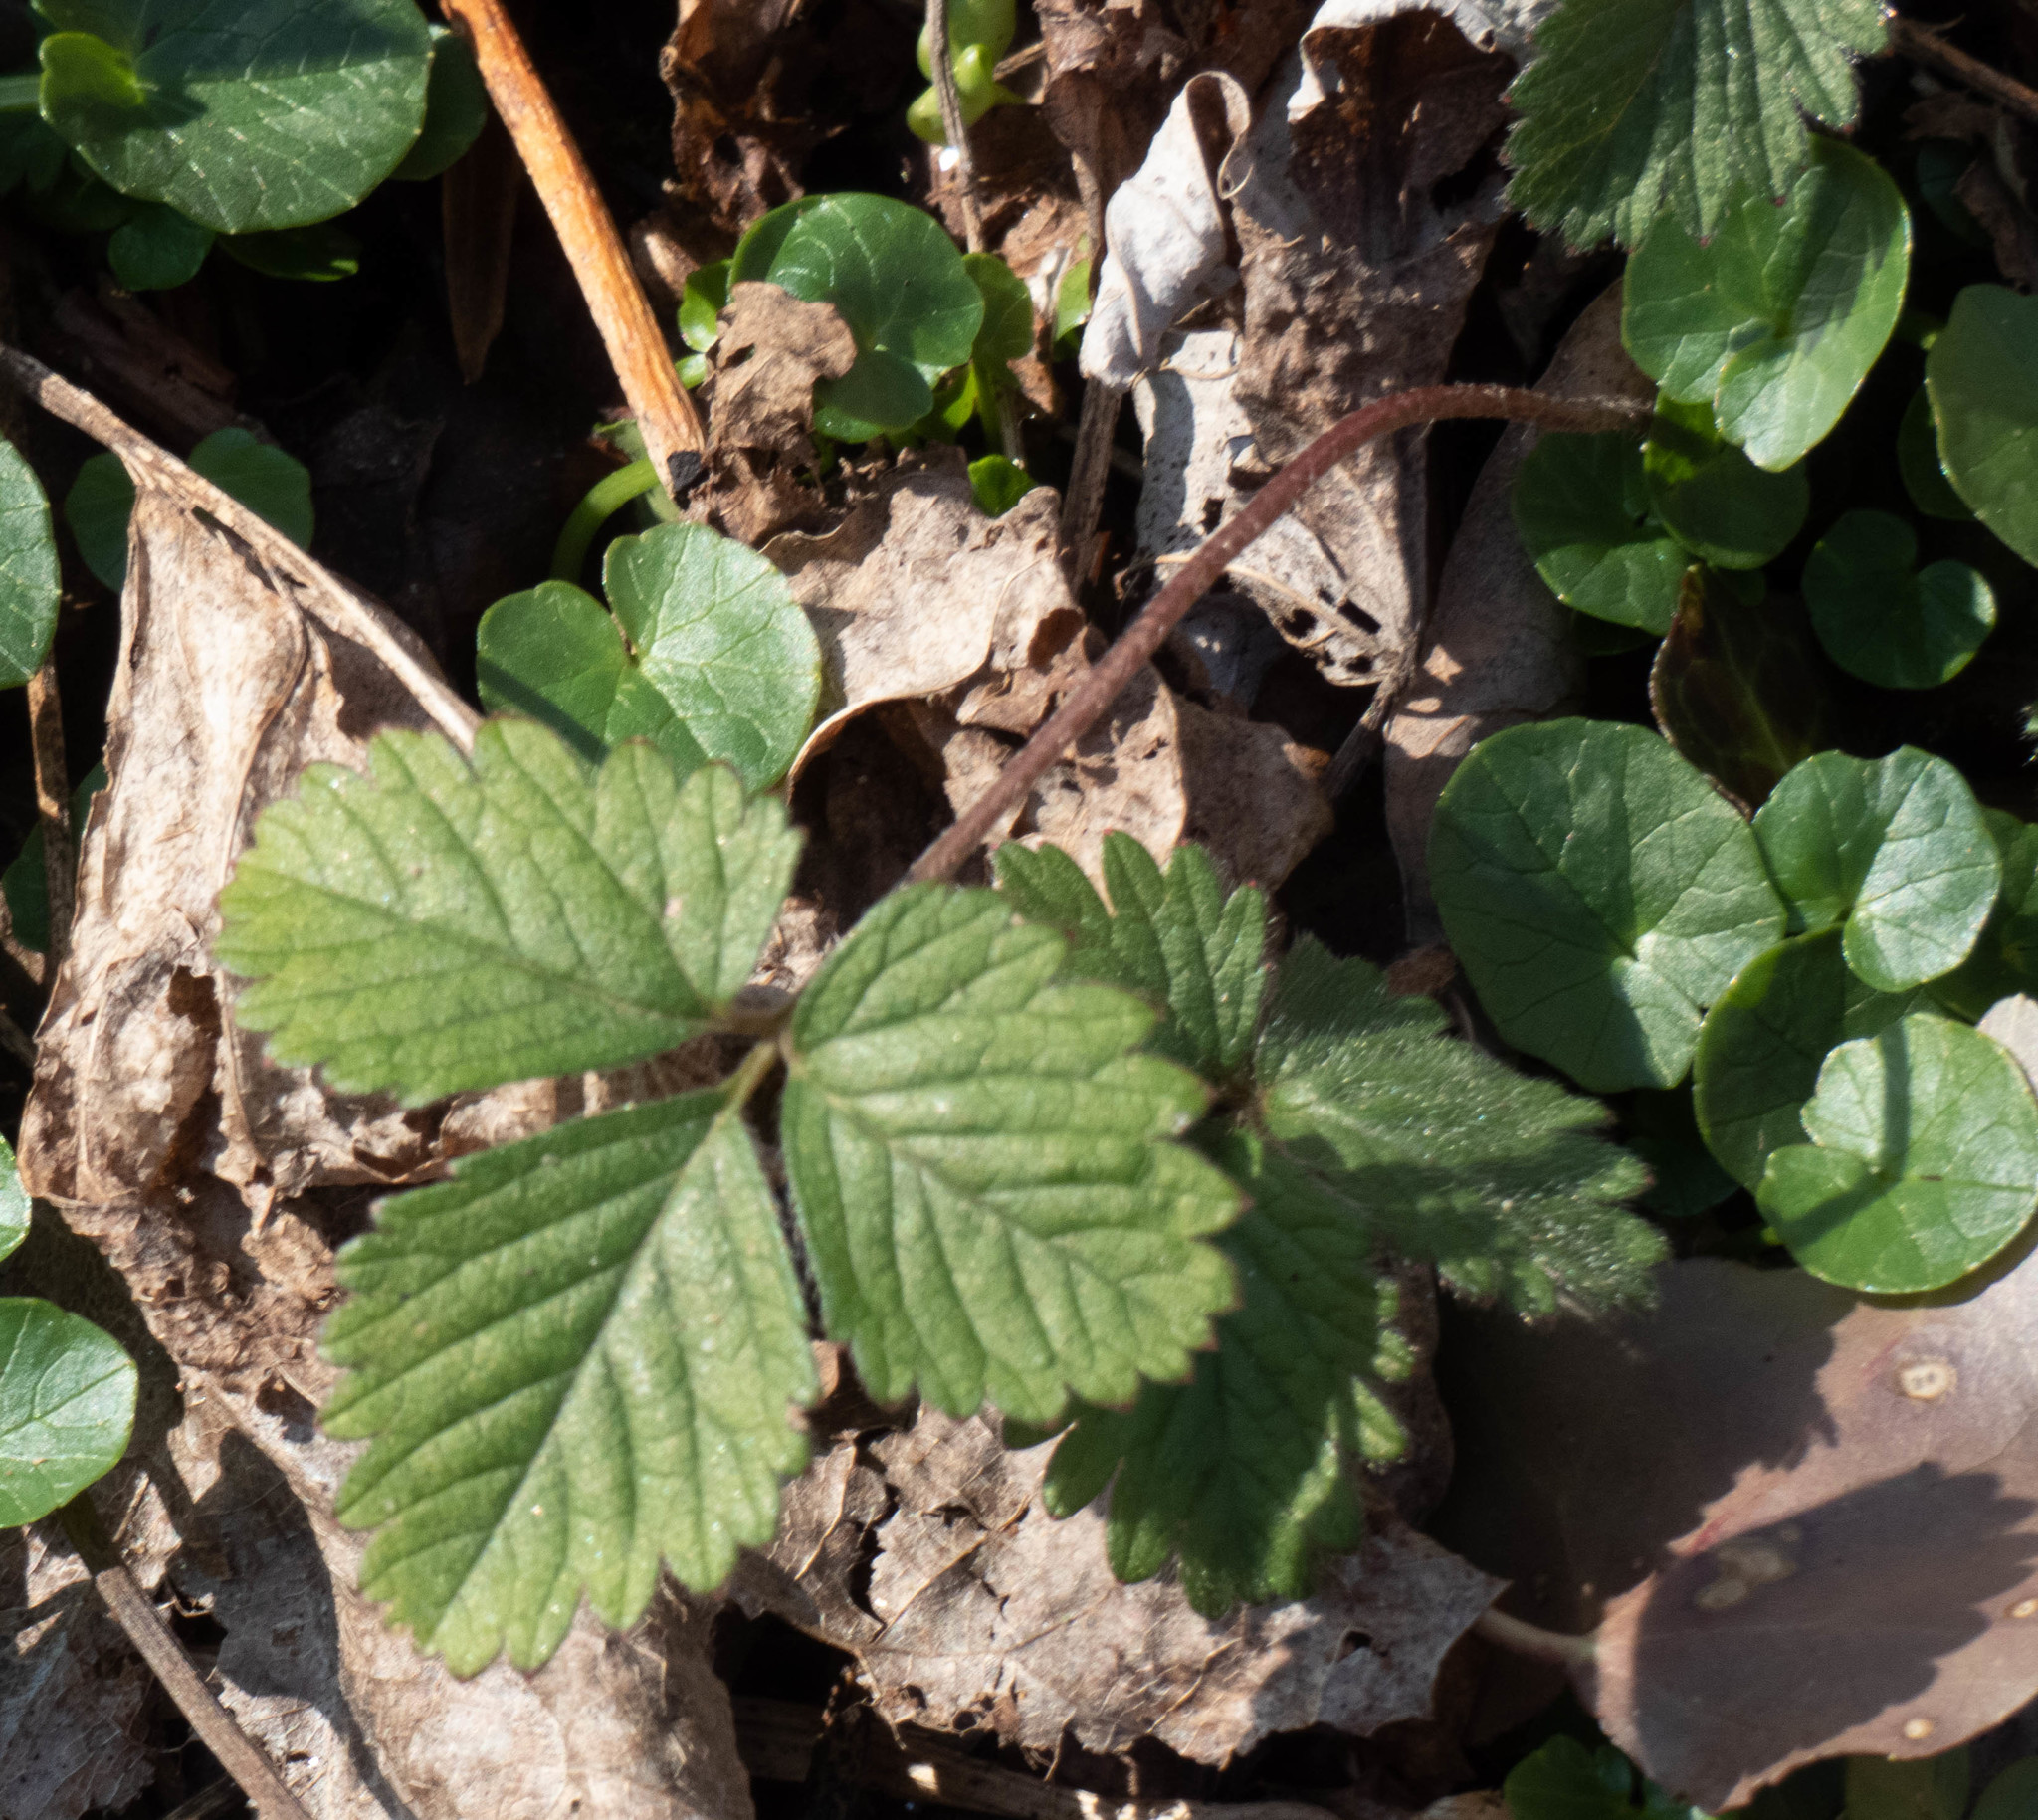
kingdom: Plantae
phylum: Tracheophyta
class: Magnoliopsida
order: Rosales
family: Rosaceae
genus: Potentilla
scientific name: Potentilla indica
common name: Yellow-flowered strawberry
